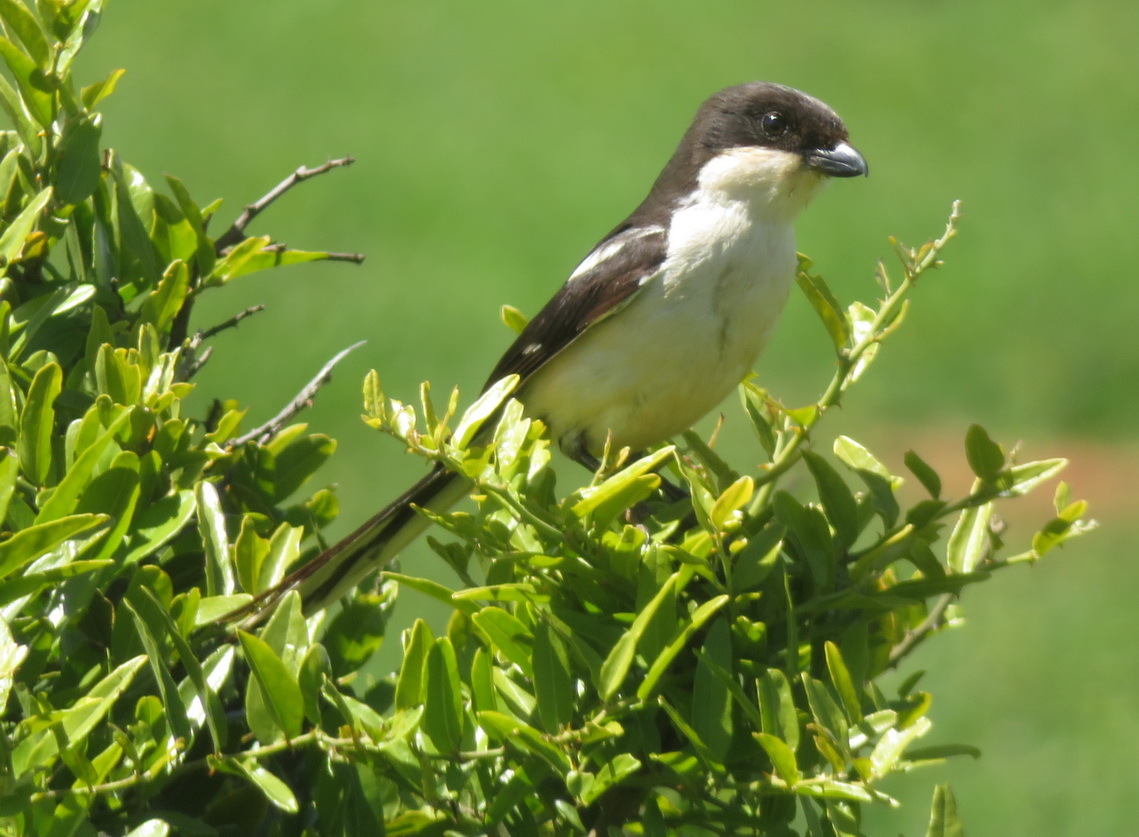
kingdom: Animalia
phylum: Chordata
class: Aves
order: Passeriformes
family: Laniidae
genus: Lanius
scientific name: Lanius collaris
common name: Southern fiscal
